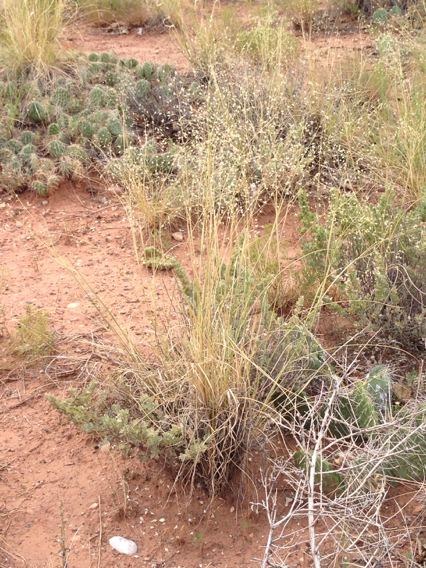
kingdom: Plantae
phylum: Tracheophyta
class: Liliopsida
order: Poales
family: Poaceae
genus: Eriocoma
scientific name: Eriocoma hymenoides
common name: Indian mountain ricegrass
